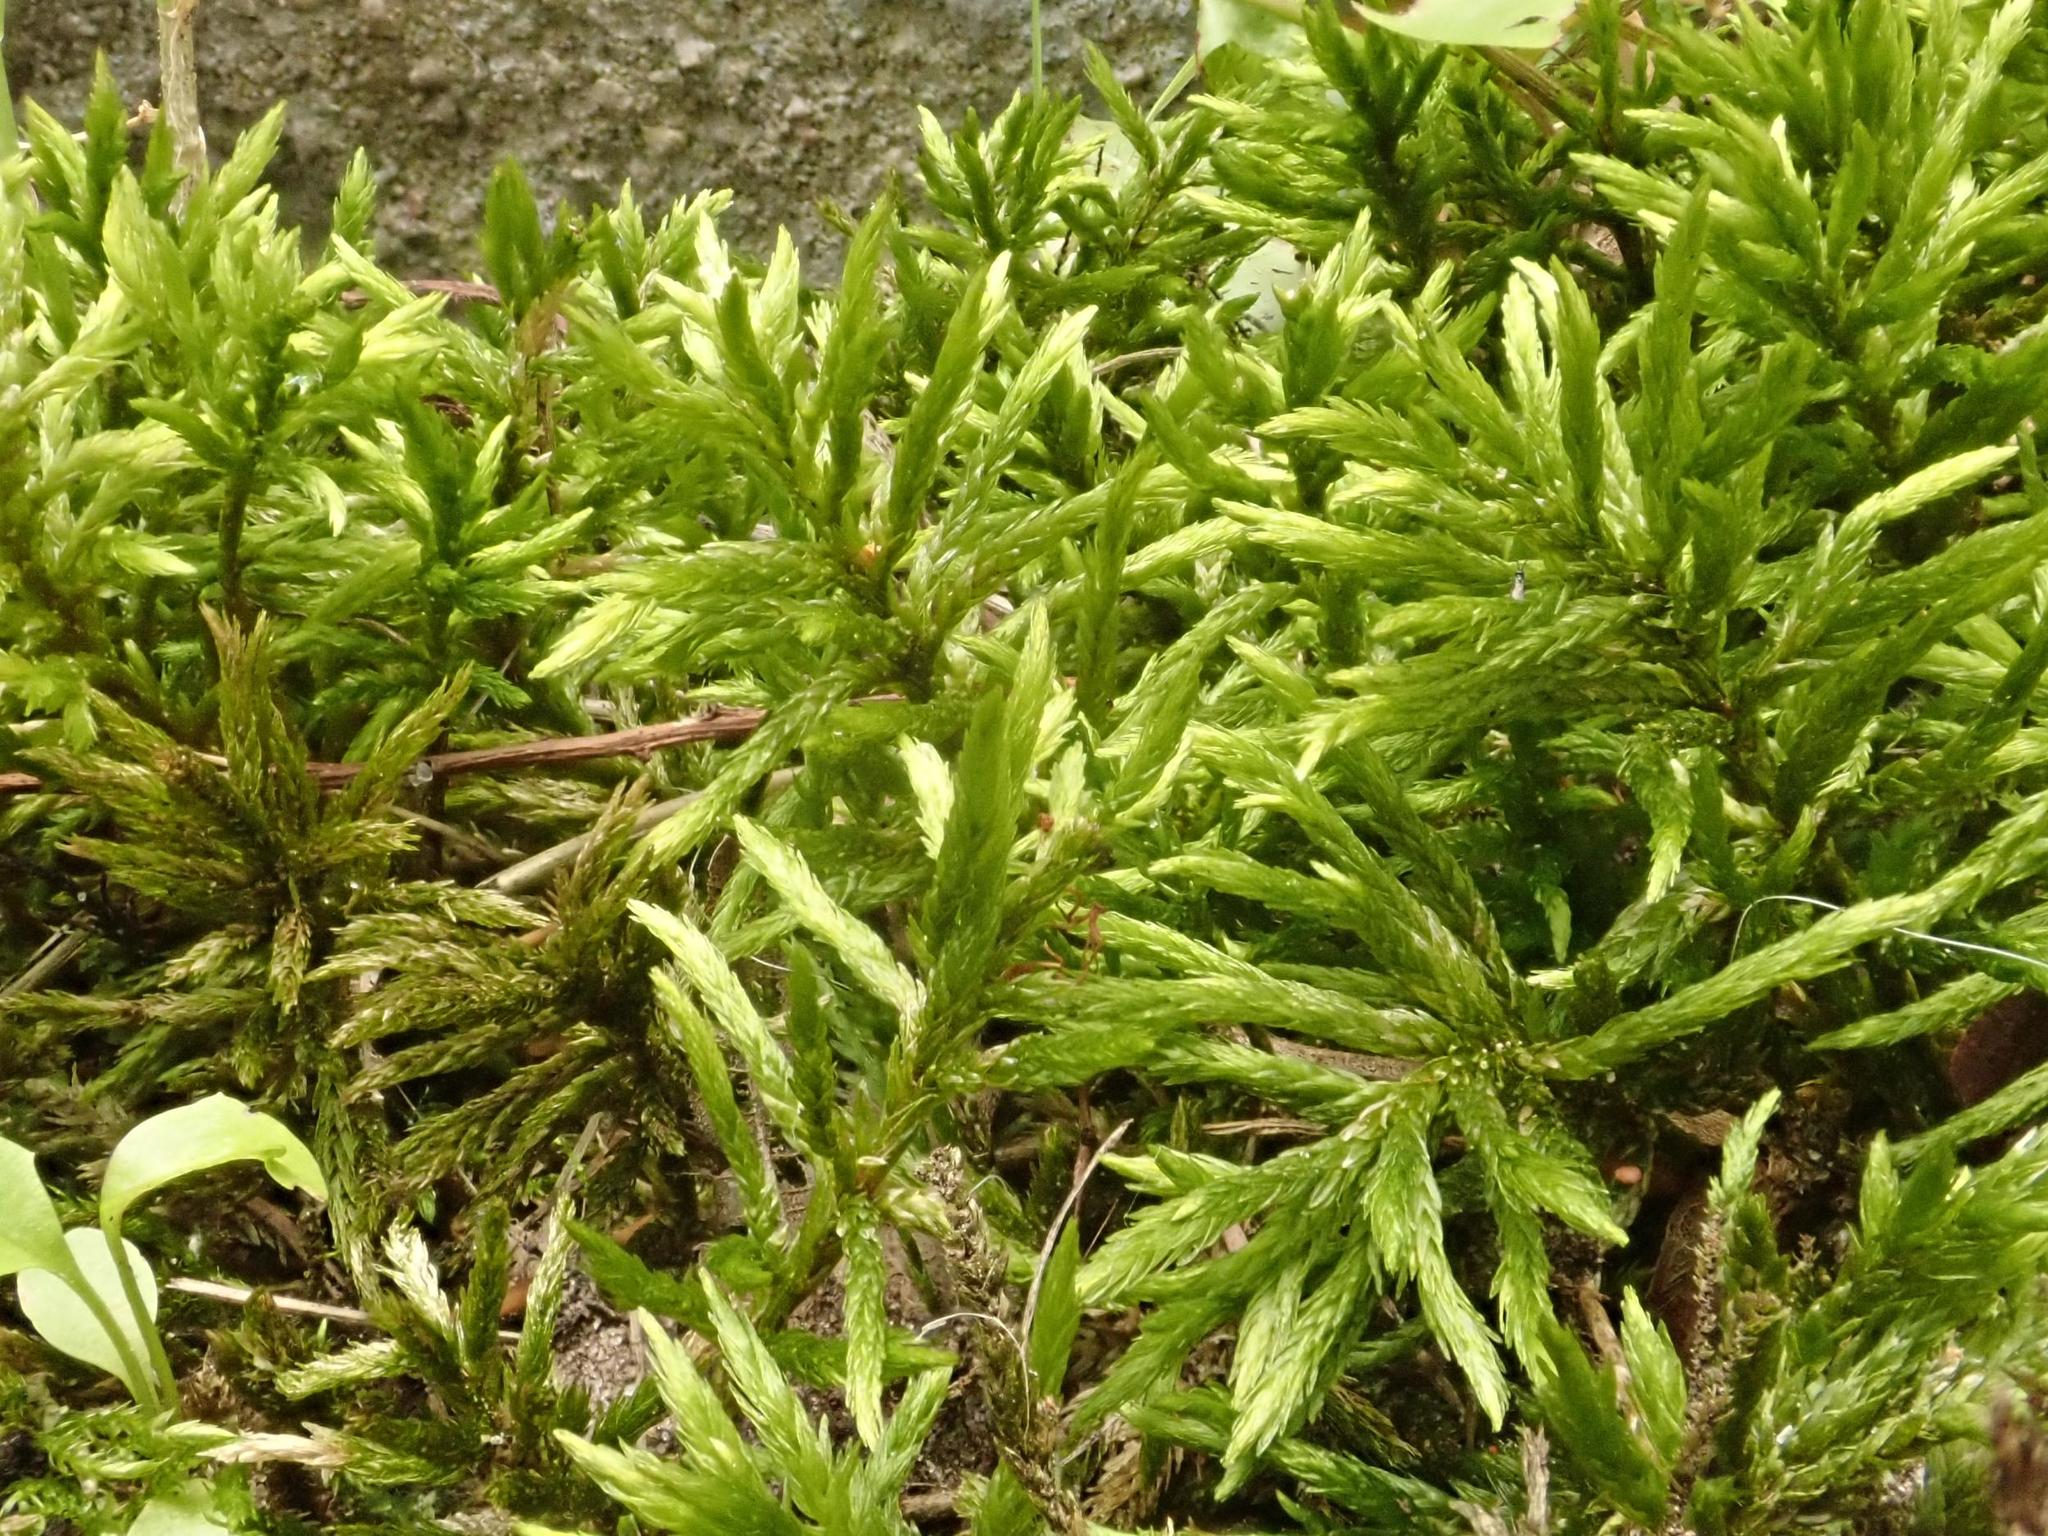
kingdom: Plantae
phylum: Bryophyta
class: Bryopsida
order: Hypnales
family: Climaciaceae
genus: Climacium
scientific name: Climacium dendroides
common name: Northern tree moss
